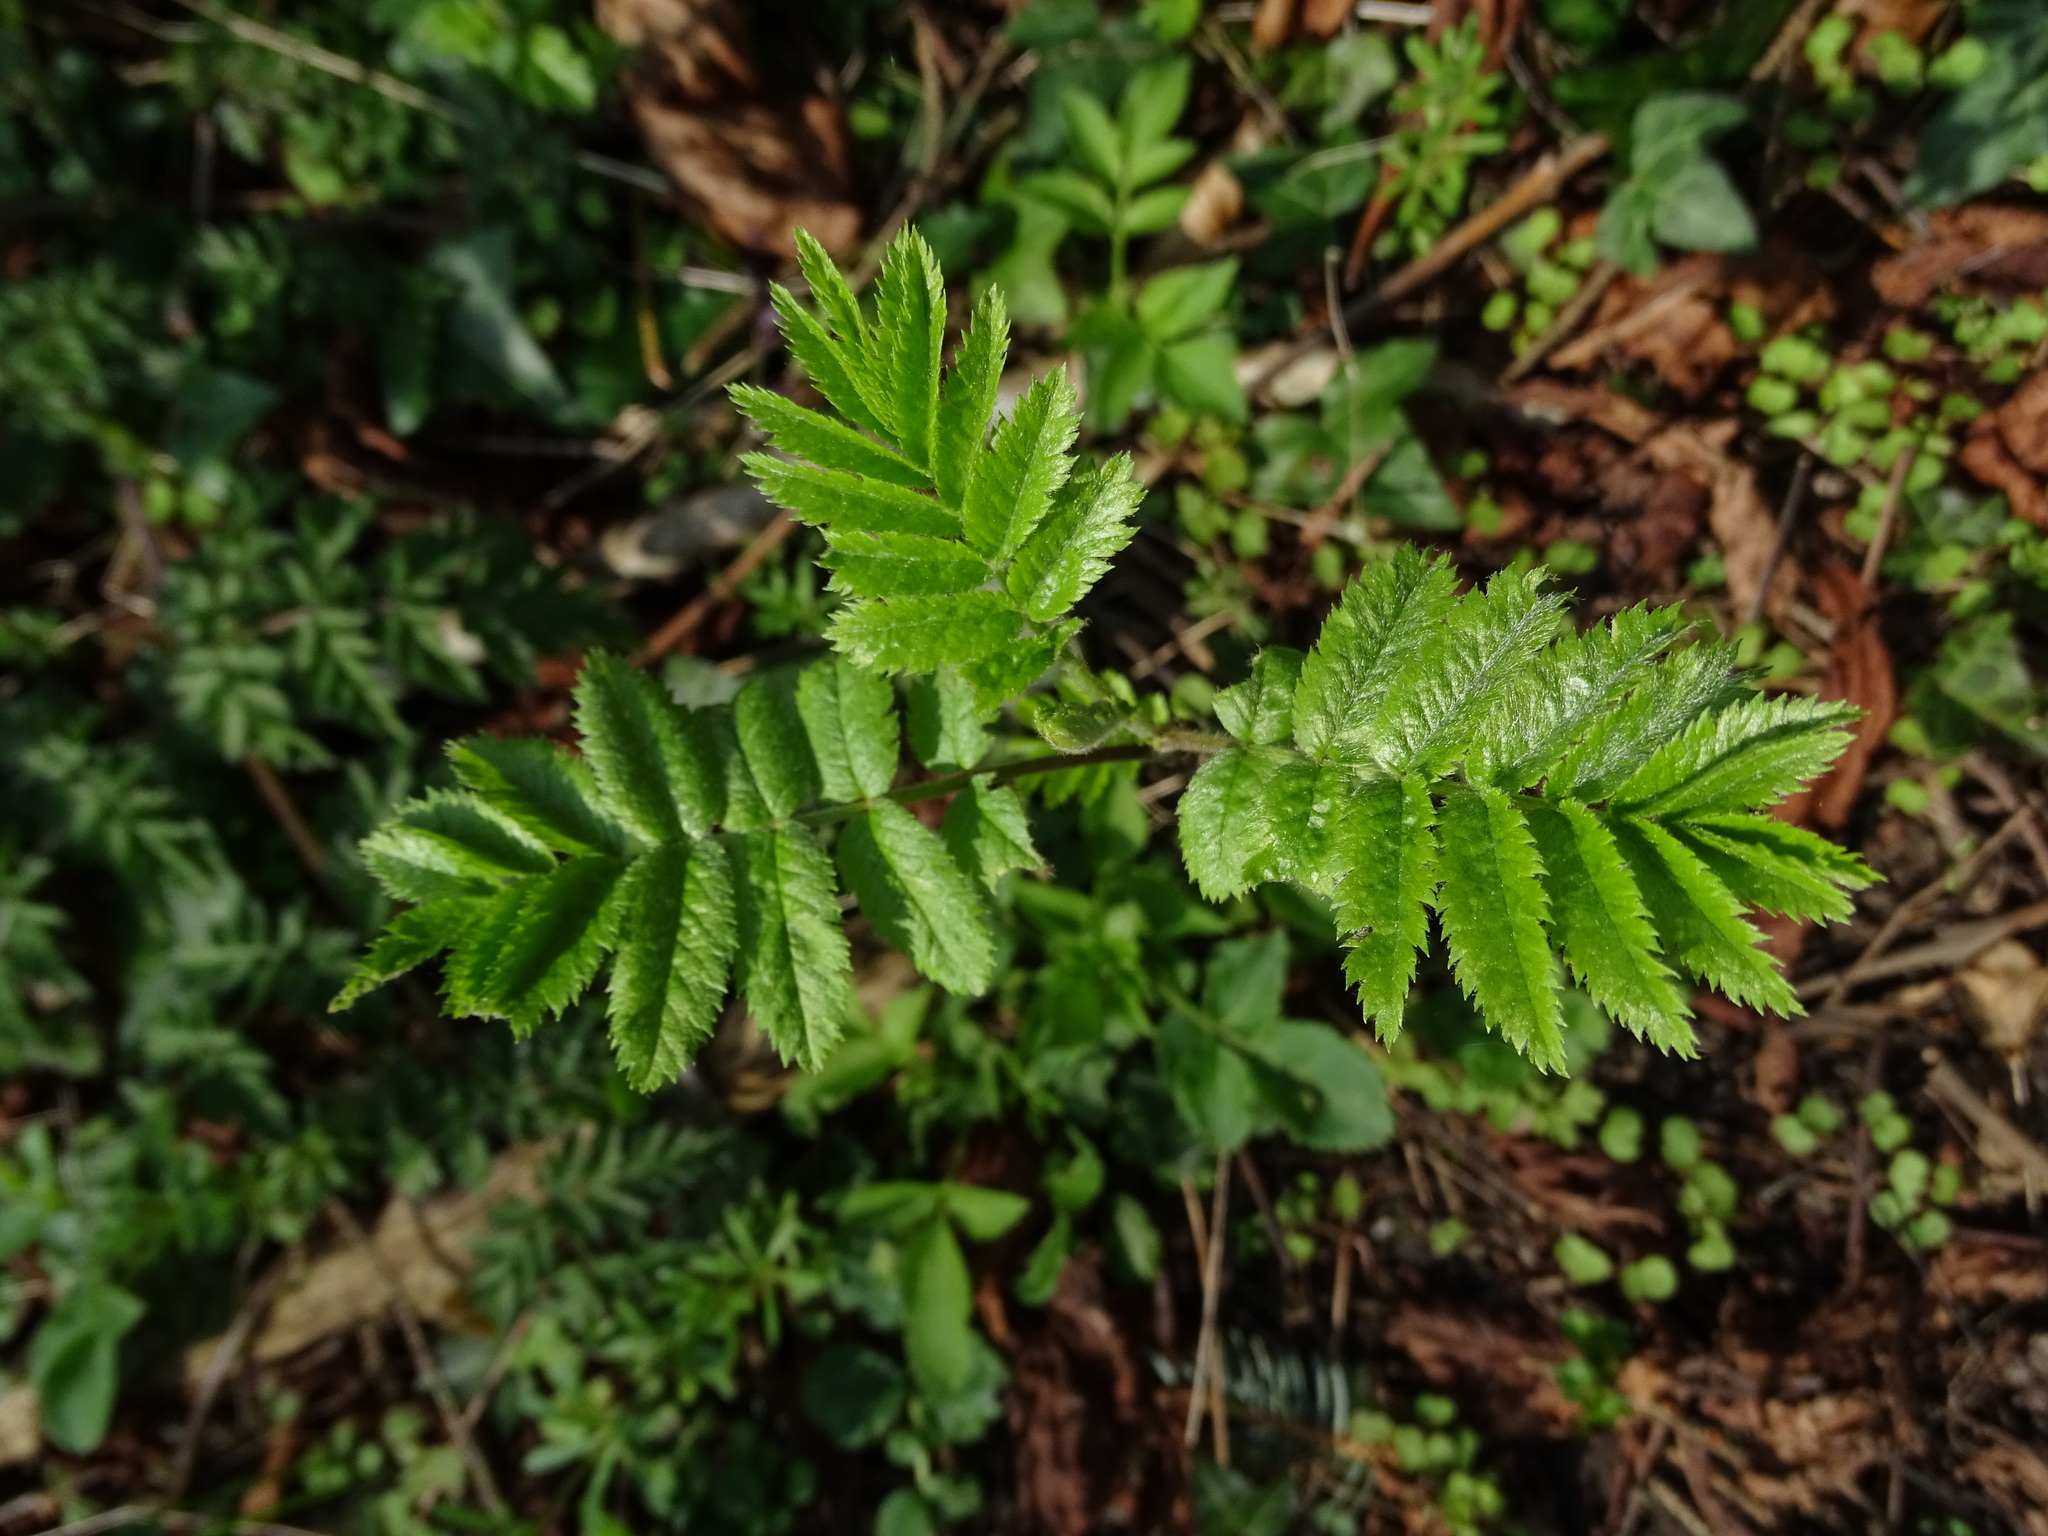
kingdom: Plantae
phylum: Tracheophyta
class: Magnoliopsida
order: Rosales
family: Rosaceae
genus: Sorbus
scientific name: Sorbus aucuparia
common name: Rowan
